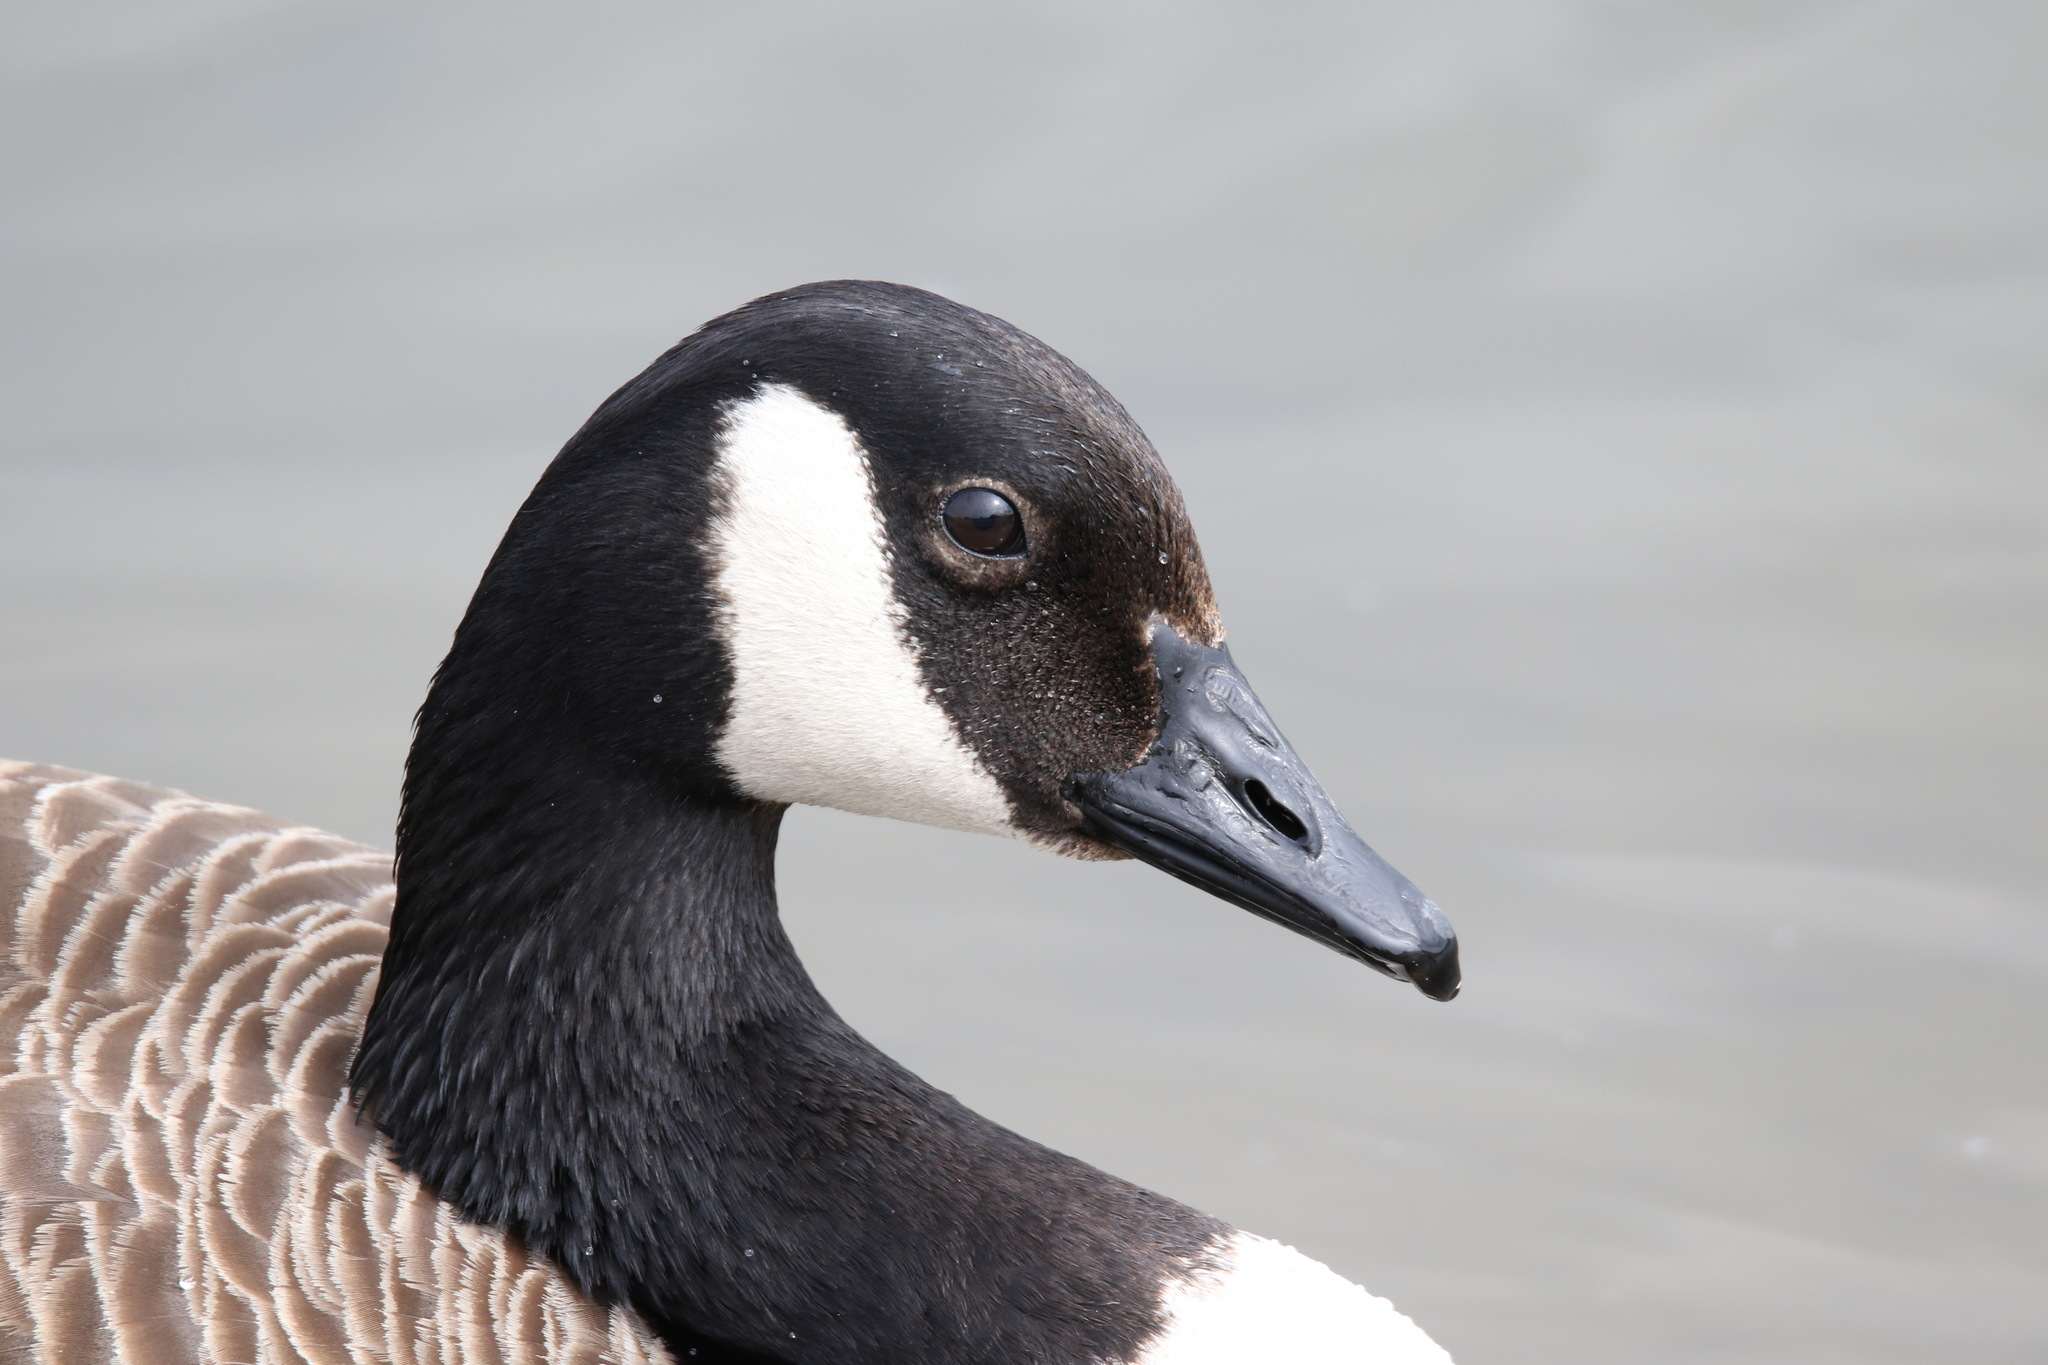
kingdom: Animalia
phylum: Chordata
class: Aves
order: Anseriformes
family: Anatidae
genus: Branta
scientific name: Branta canadensis
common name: Canada goose
